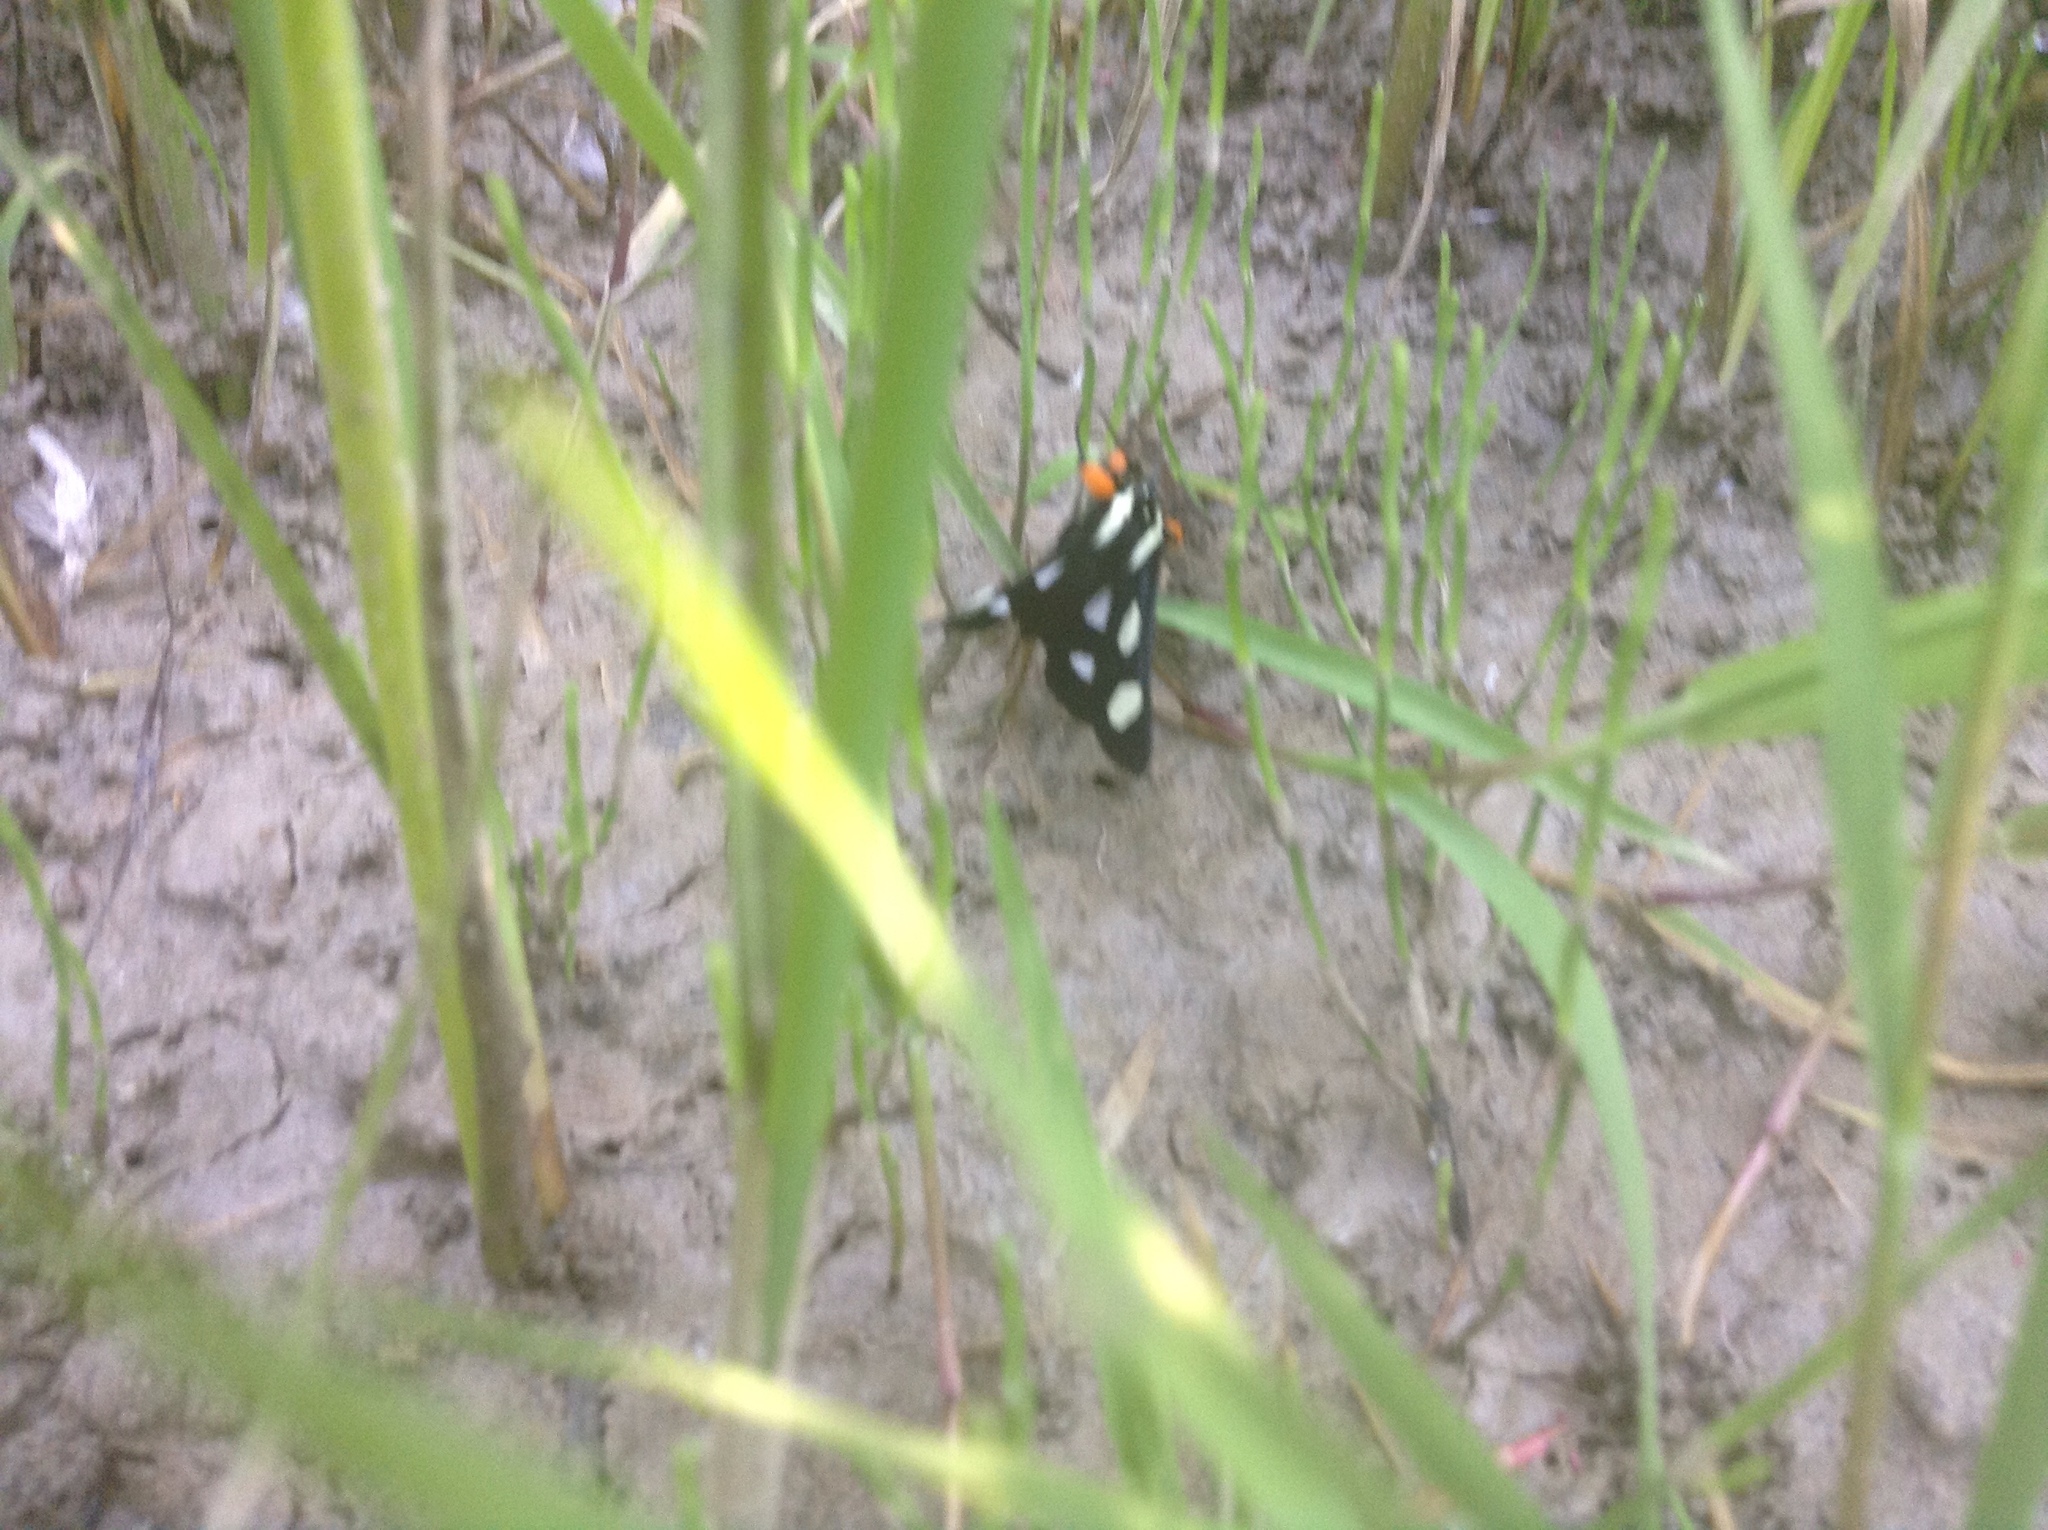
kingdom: Animalia
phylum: Arthropoda
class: Insecta
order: Lepidoptera
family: Noctuidae
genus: Alypia
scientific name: Alypia octomaculata
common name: Eight-spotted forester
